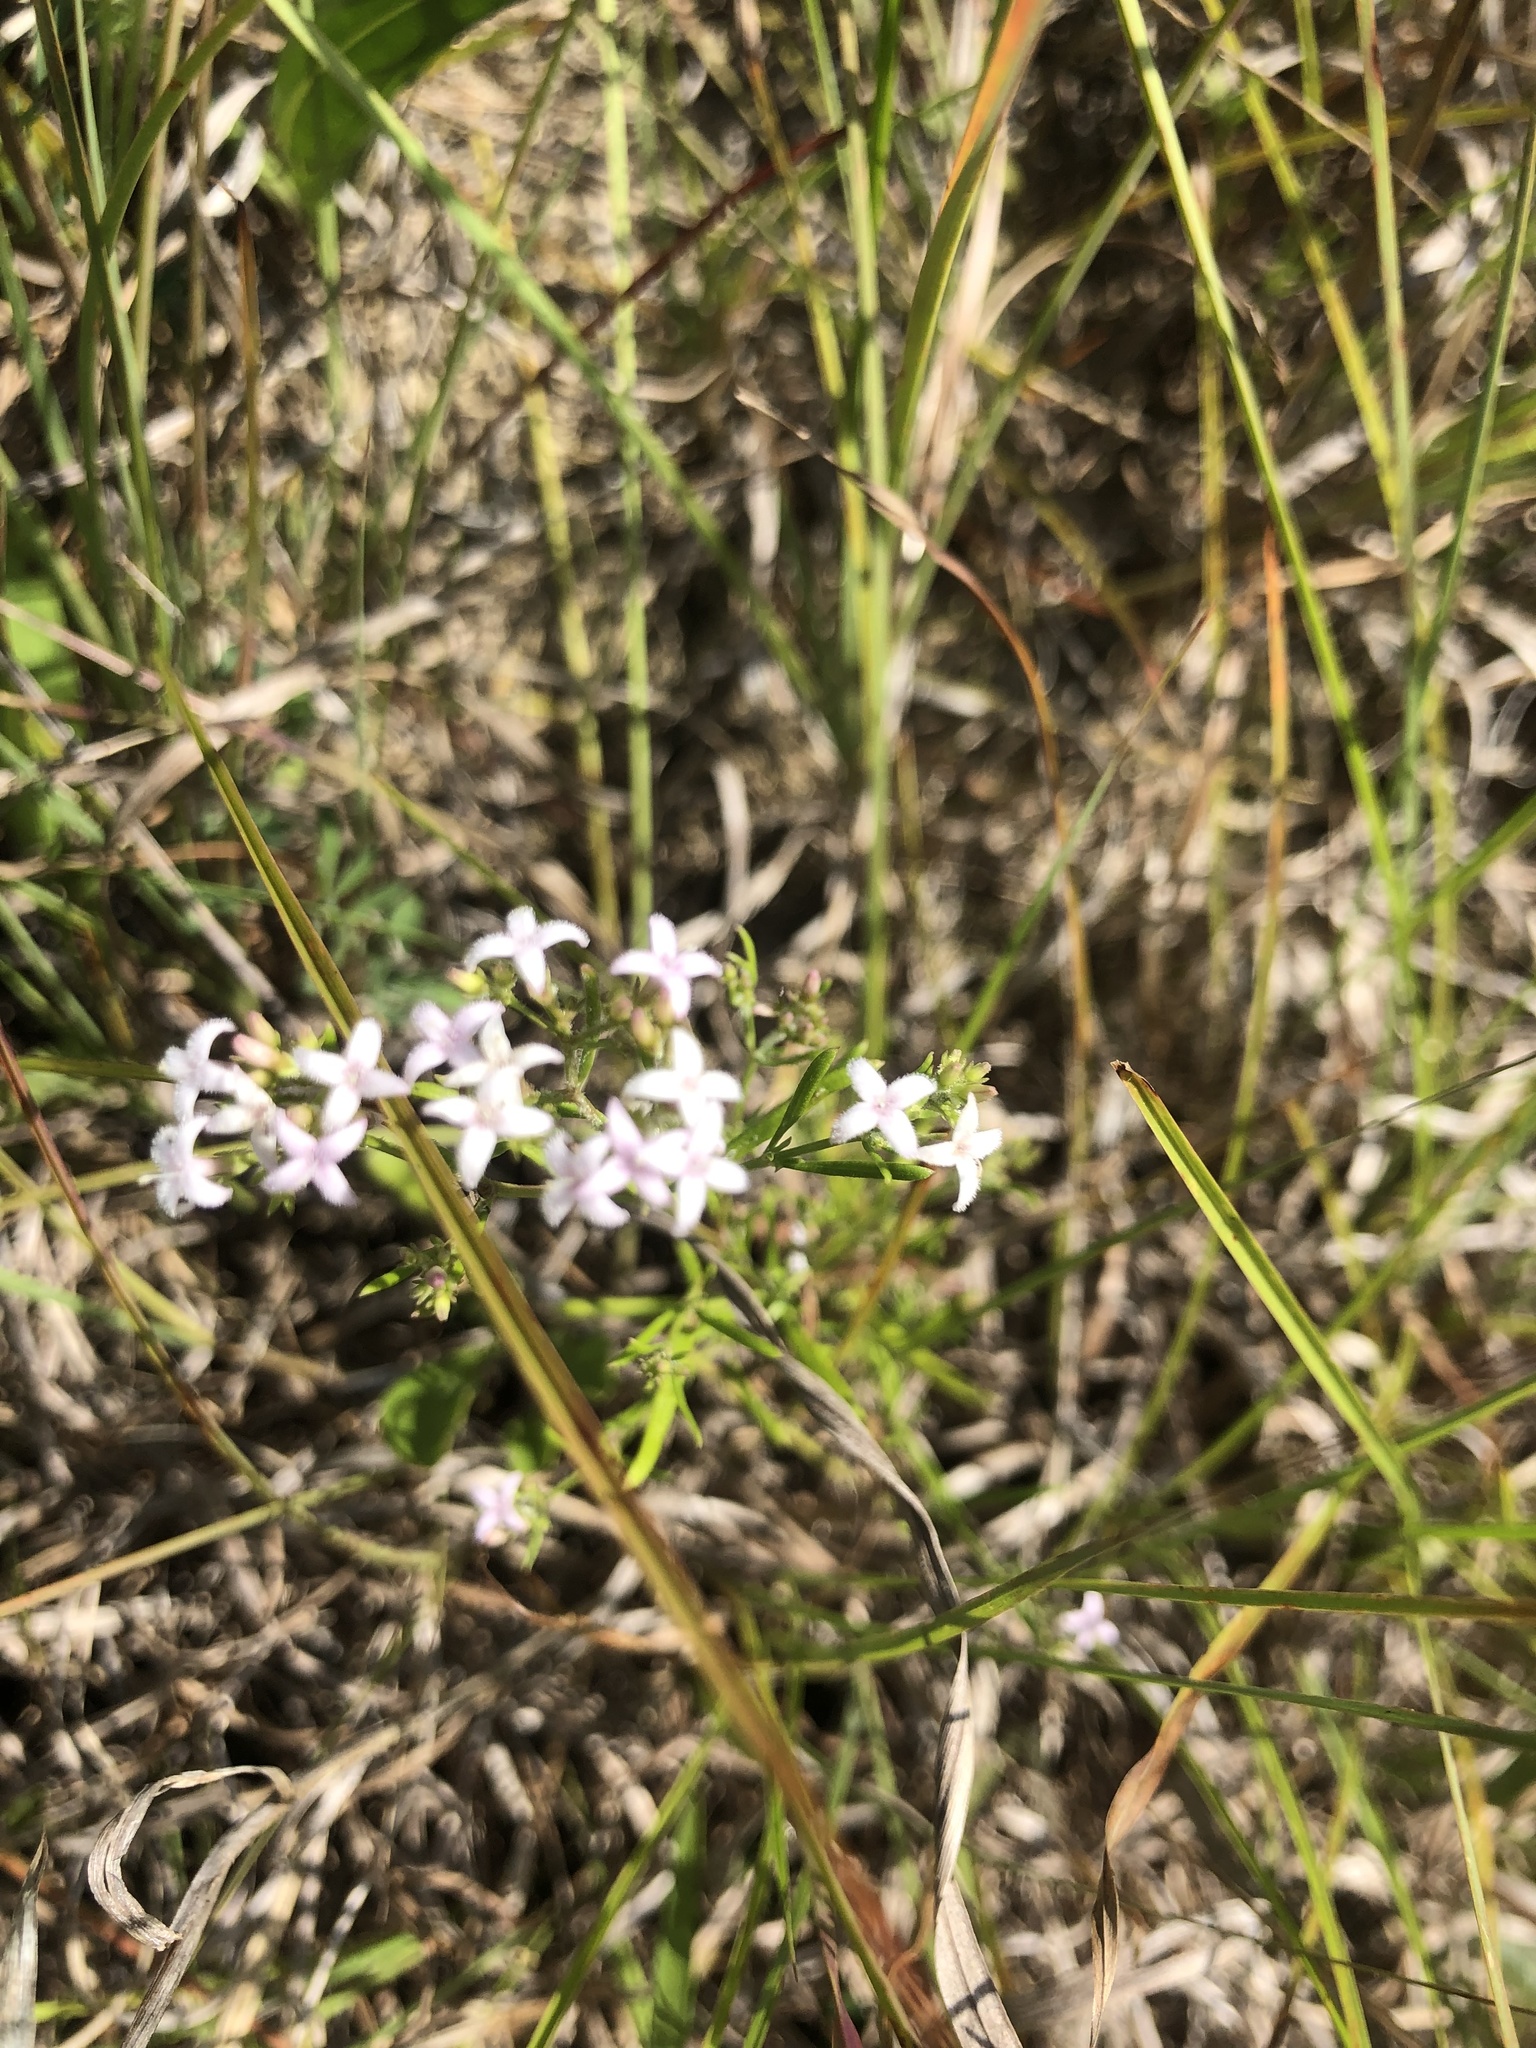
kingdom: Plantae
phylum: Tracheophyta
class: Magnoliopsida
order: Gentianales
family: Rubiaceae
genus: Stenaria
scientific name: Stenaria nigricans
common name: Diamondflowers
